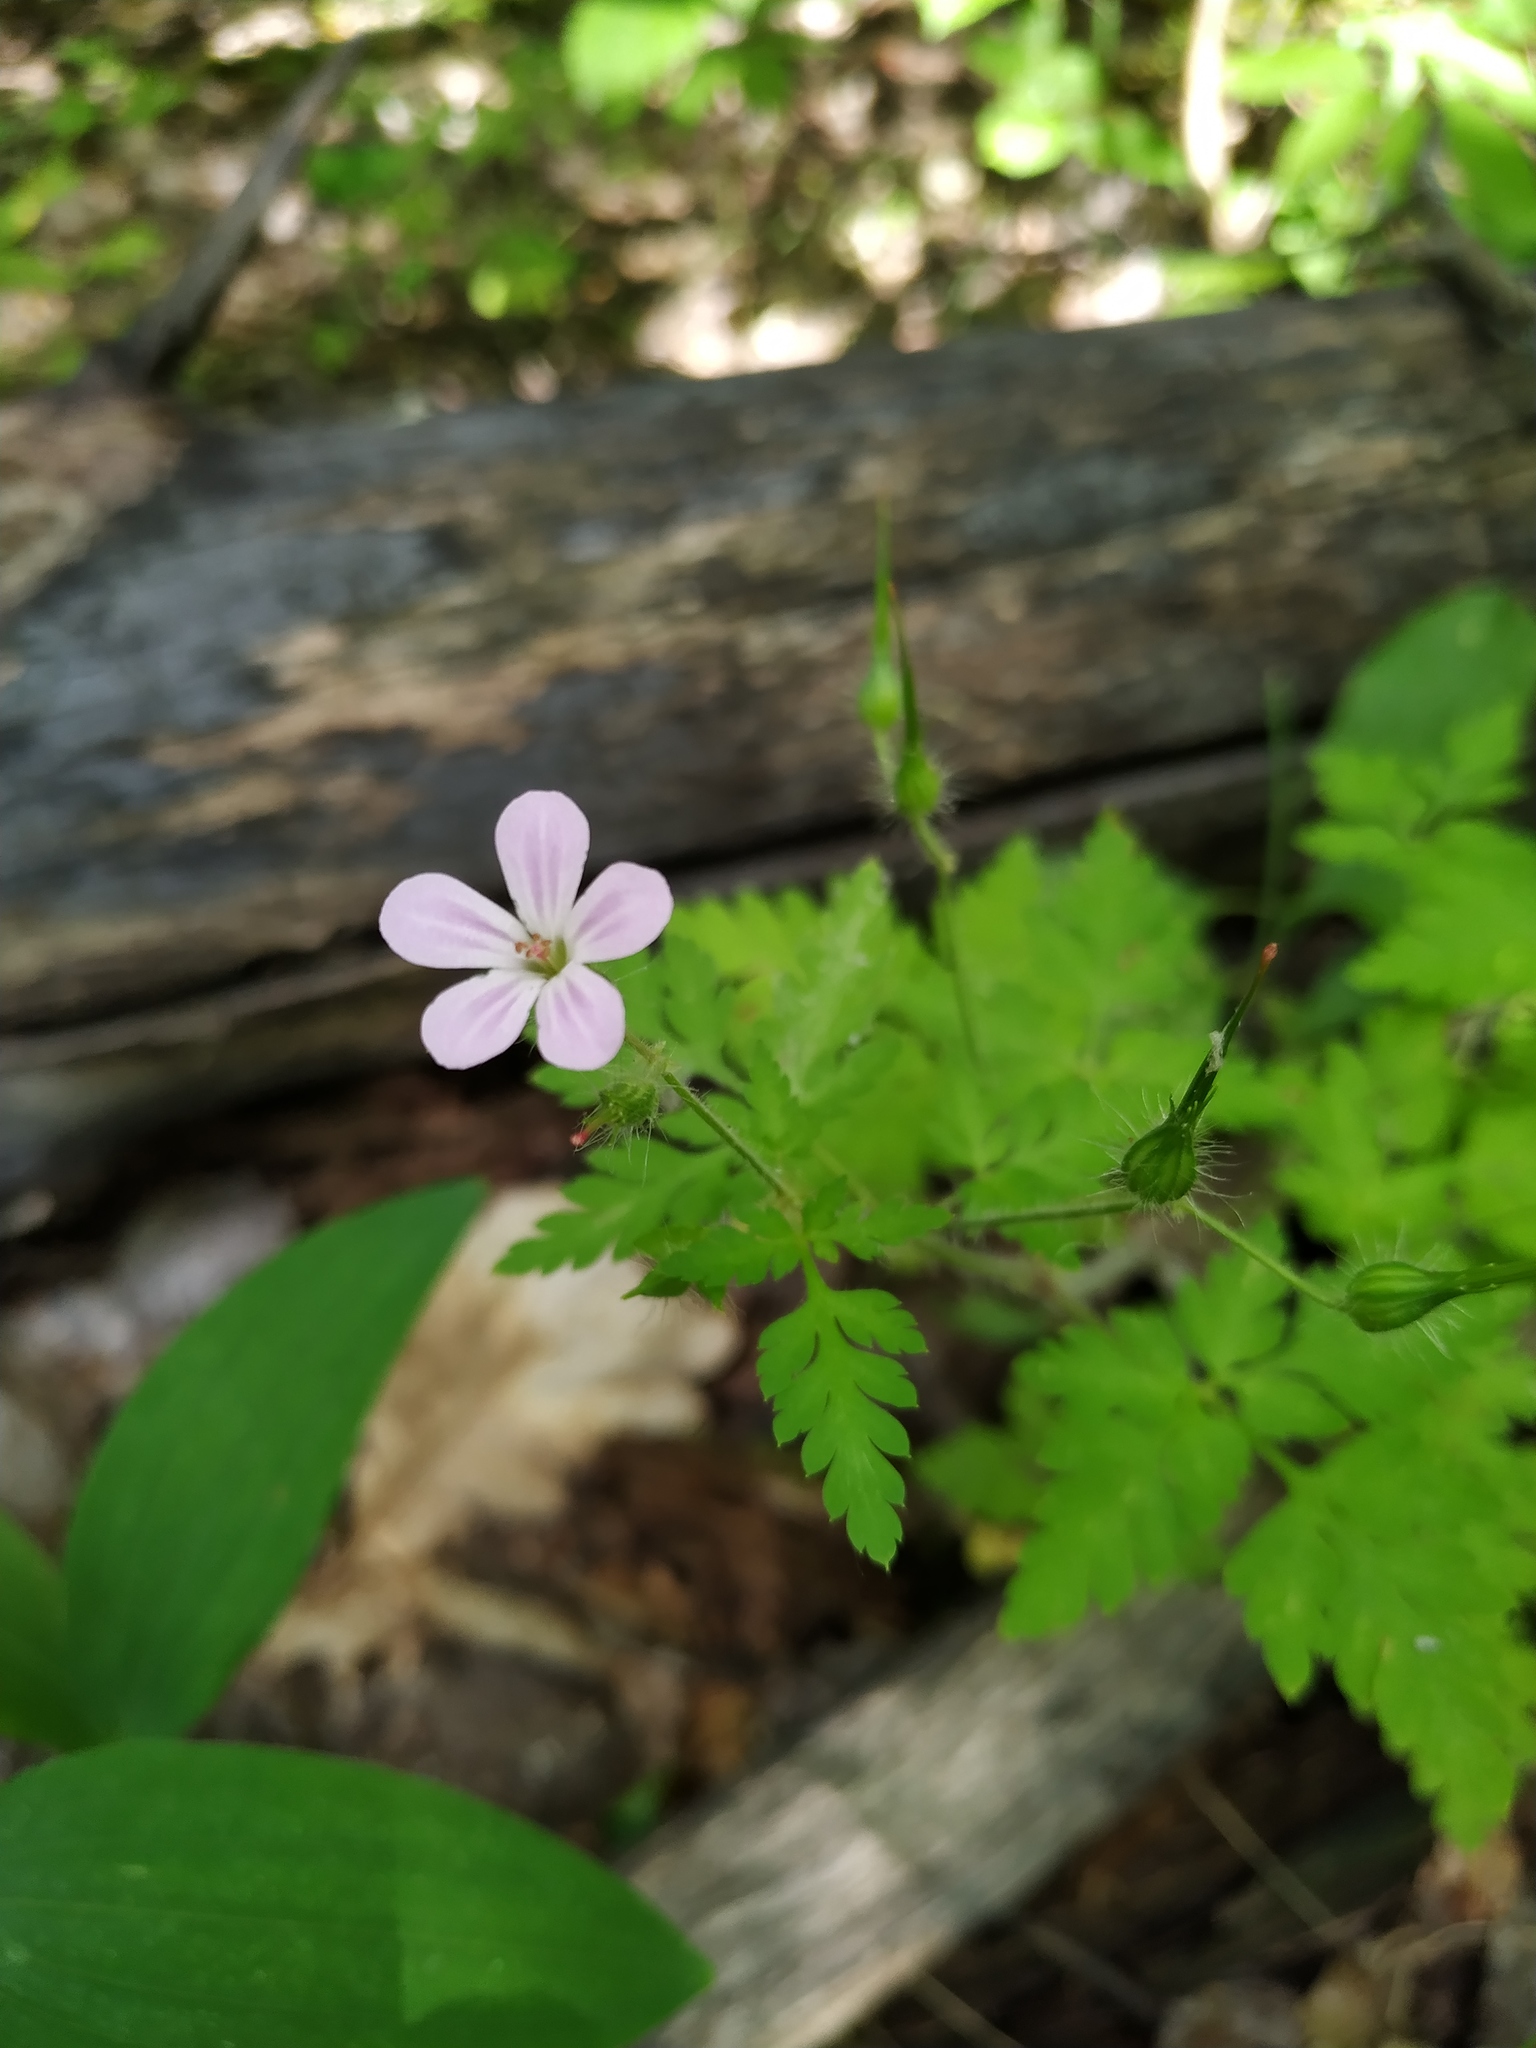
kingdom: Plantae
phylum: Tracheophyta
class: Magnoliopsida
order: Geraniales
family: Geraniaceae
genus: Geranium
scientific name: Geranium robertianum
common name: Herb-robert
